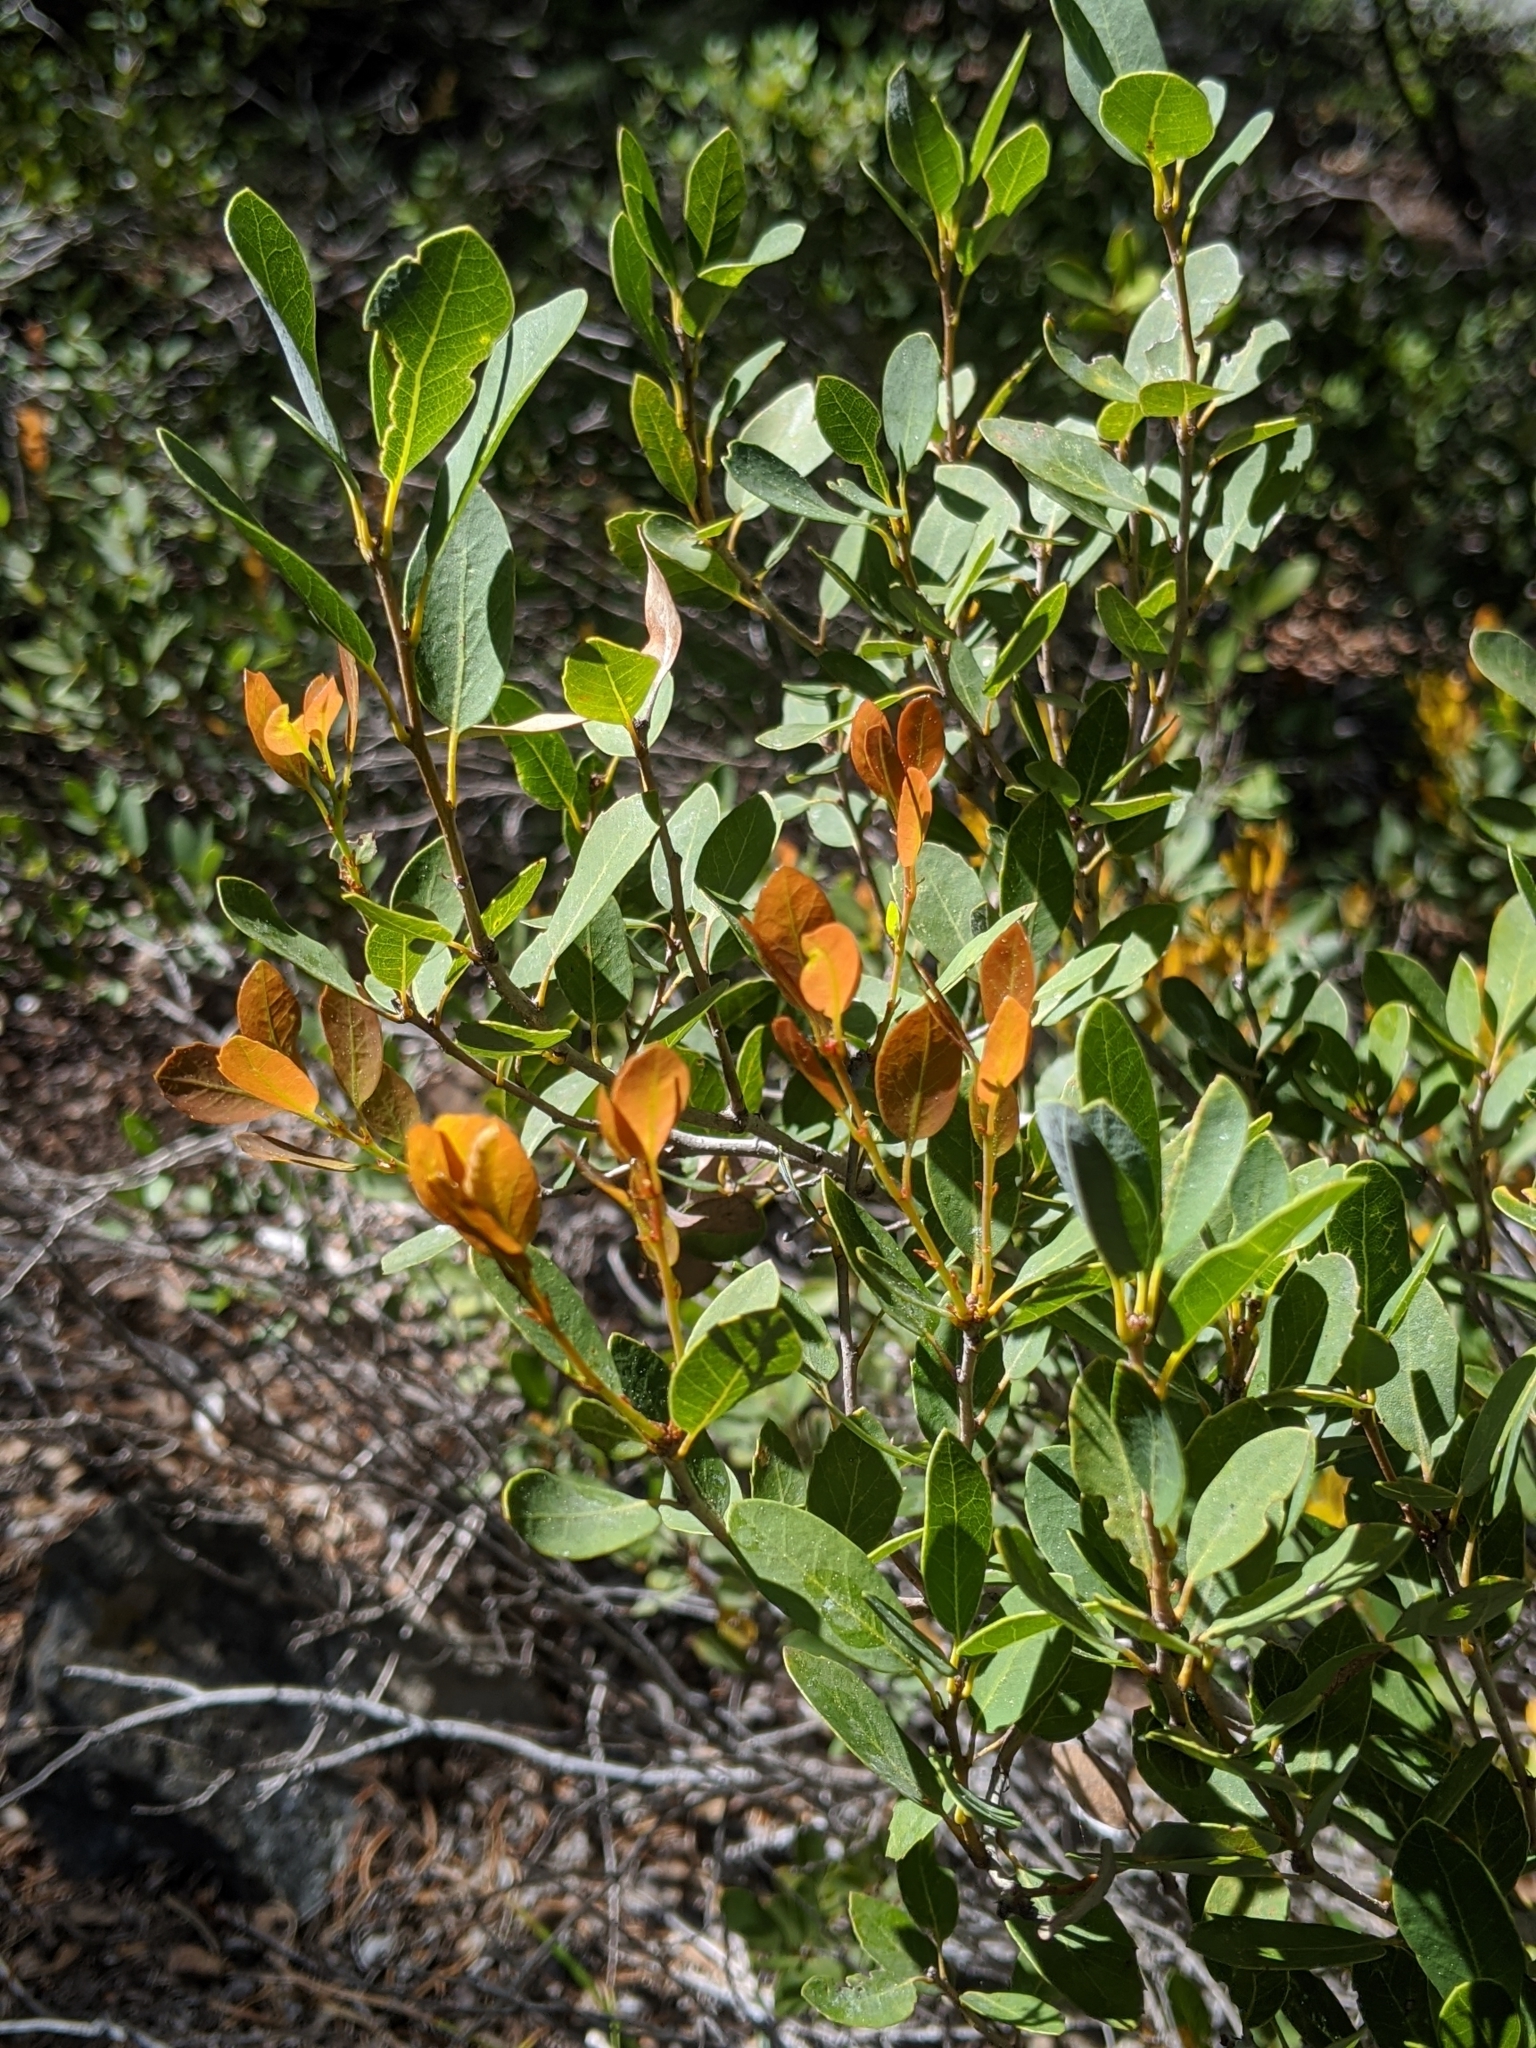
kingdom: Plantae
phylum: Tracheophyta
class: Magnoliopsida
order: Fagales
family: Fagaceae
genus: Quercus
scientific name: Quercus vacciniifolia
